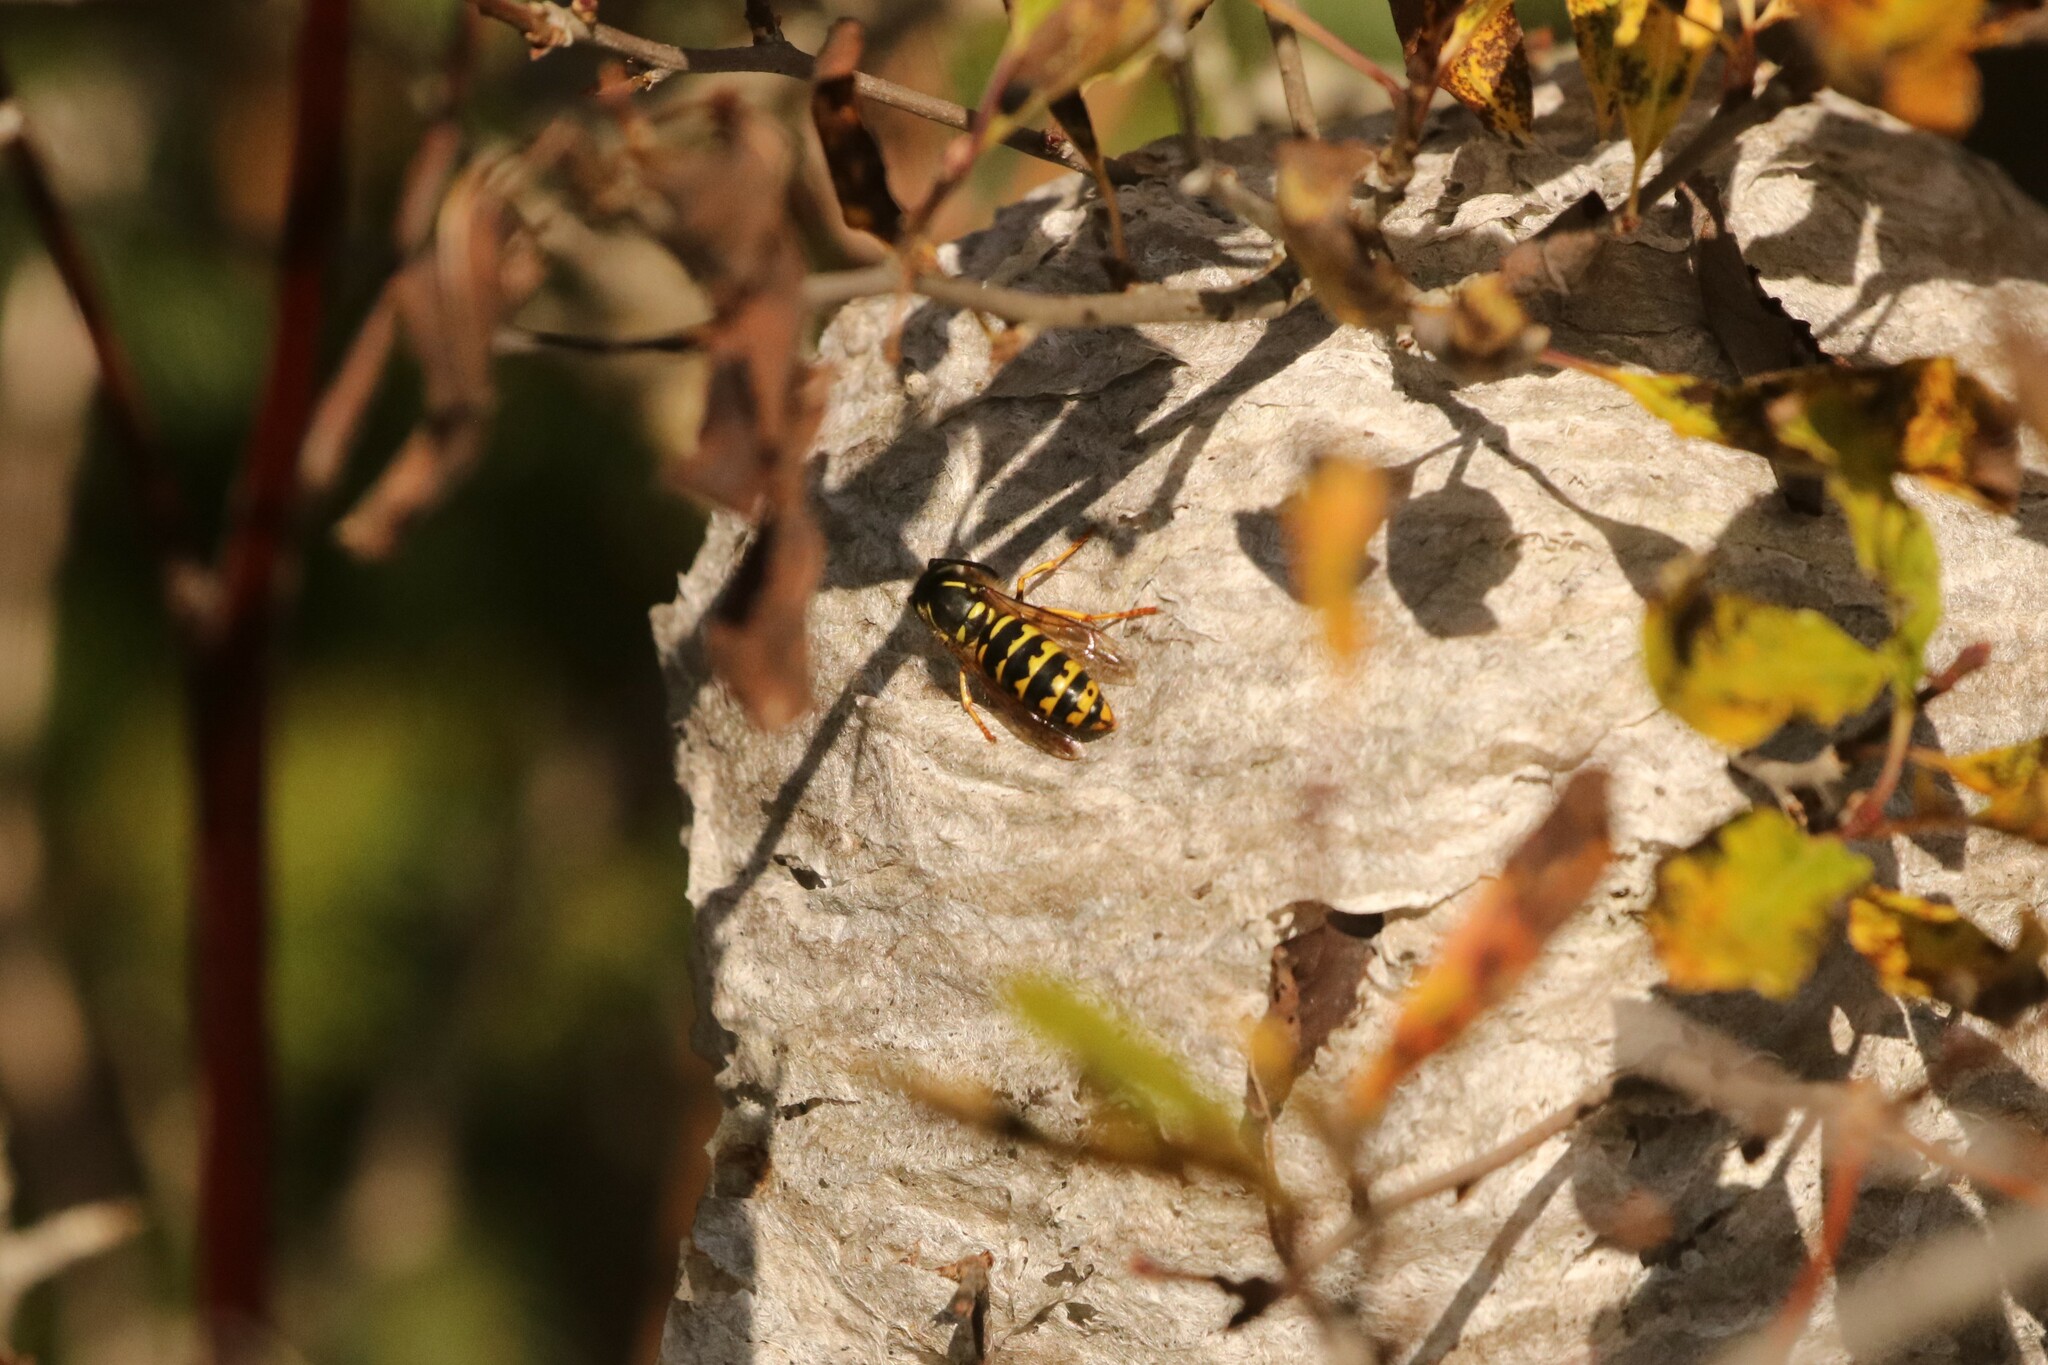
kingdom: Animalia
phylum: Arthropoda
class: Insecta
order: Hymenoptera
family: Vespidae
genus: Dolichovespula
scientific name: Dolichovespula arenaria
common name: Aerial yellowjacket
